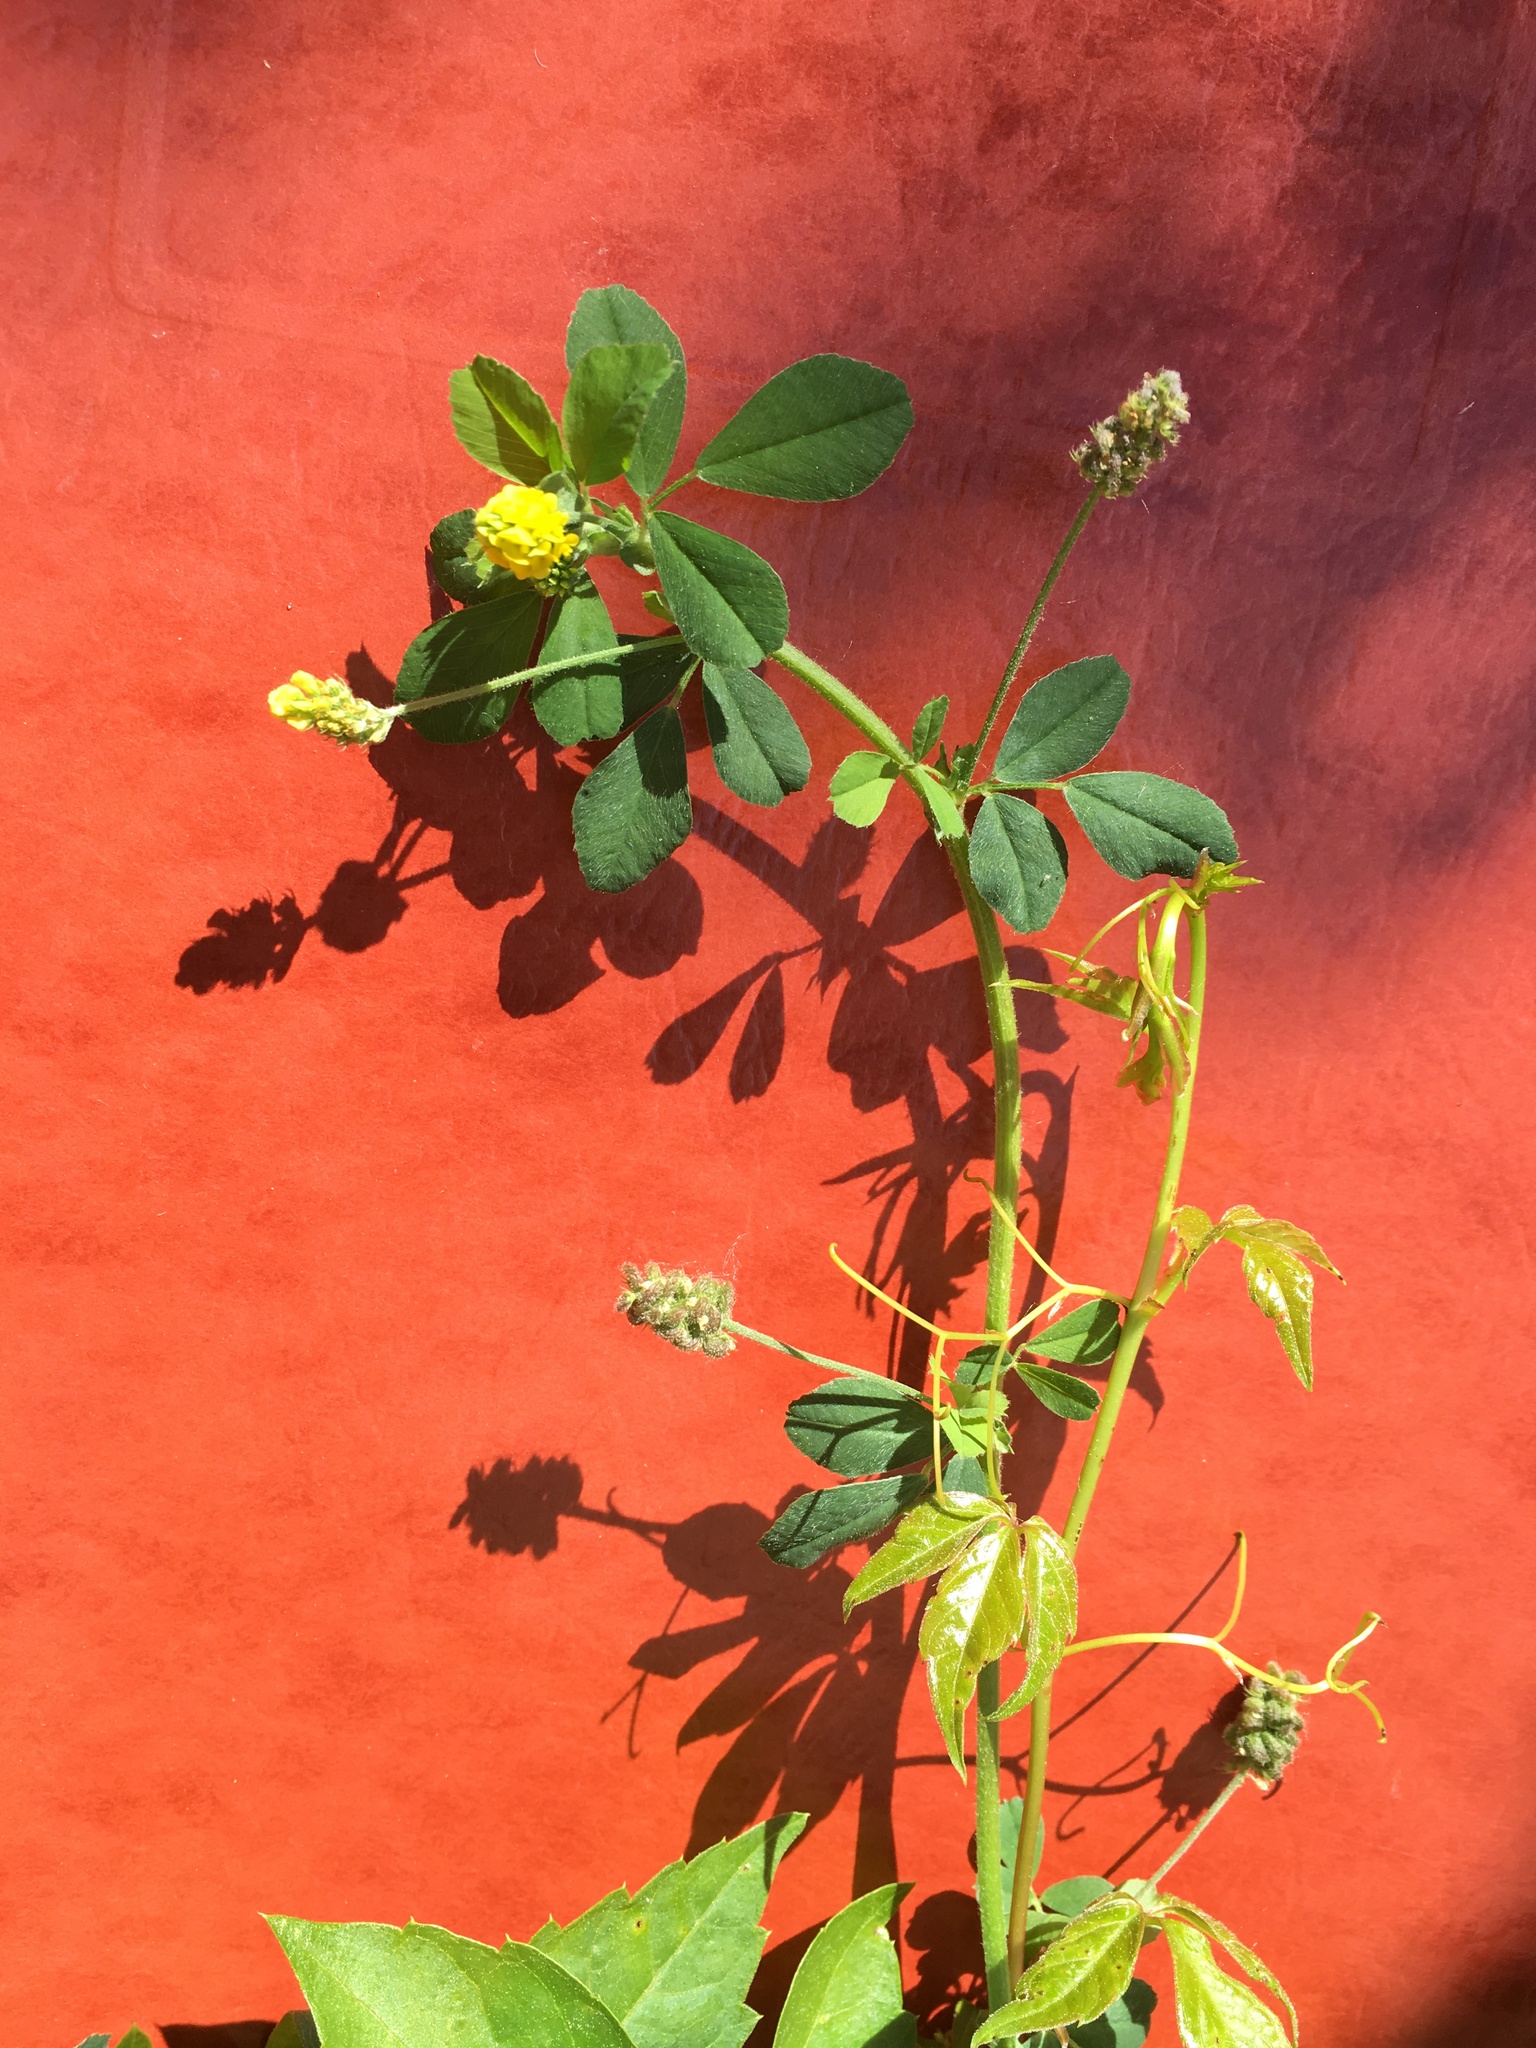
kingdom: Plantae
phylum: Tracheophyta
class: Magnoliopsida
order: Fabales
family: Fabaceae
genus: Medicago
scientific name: Medicago lupulina
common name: Black medick
